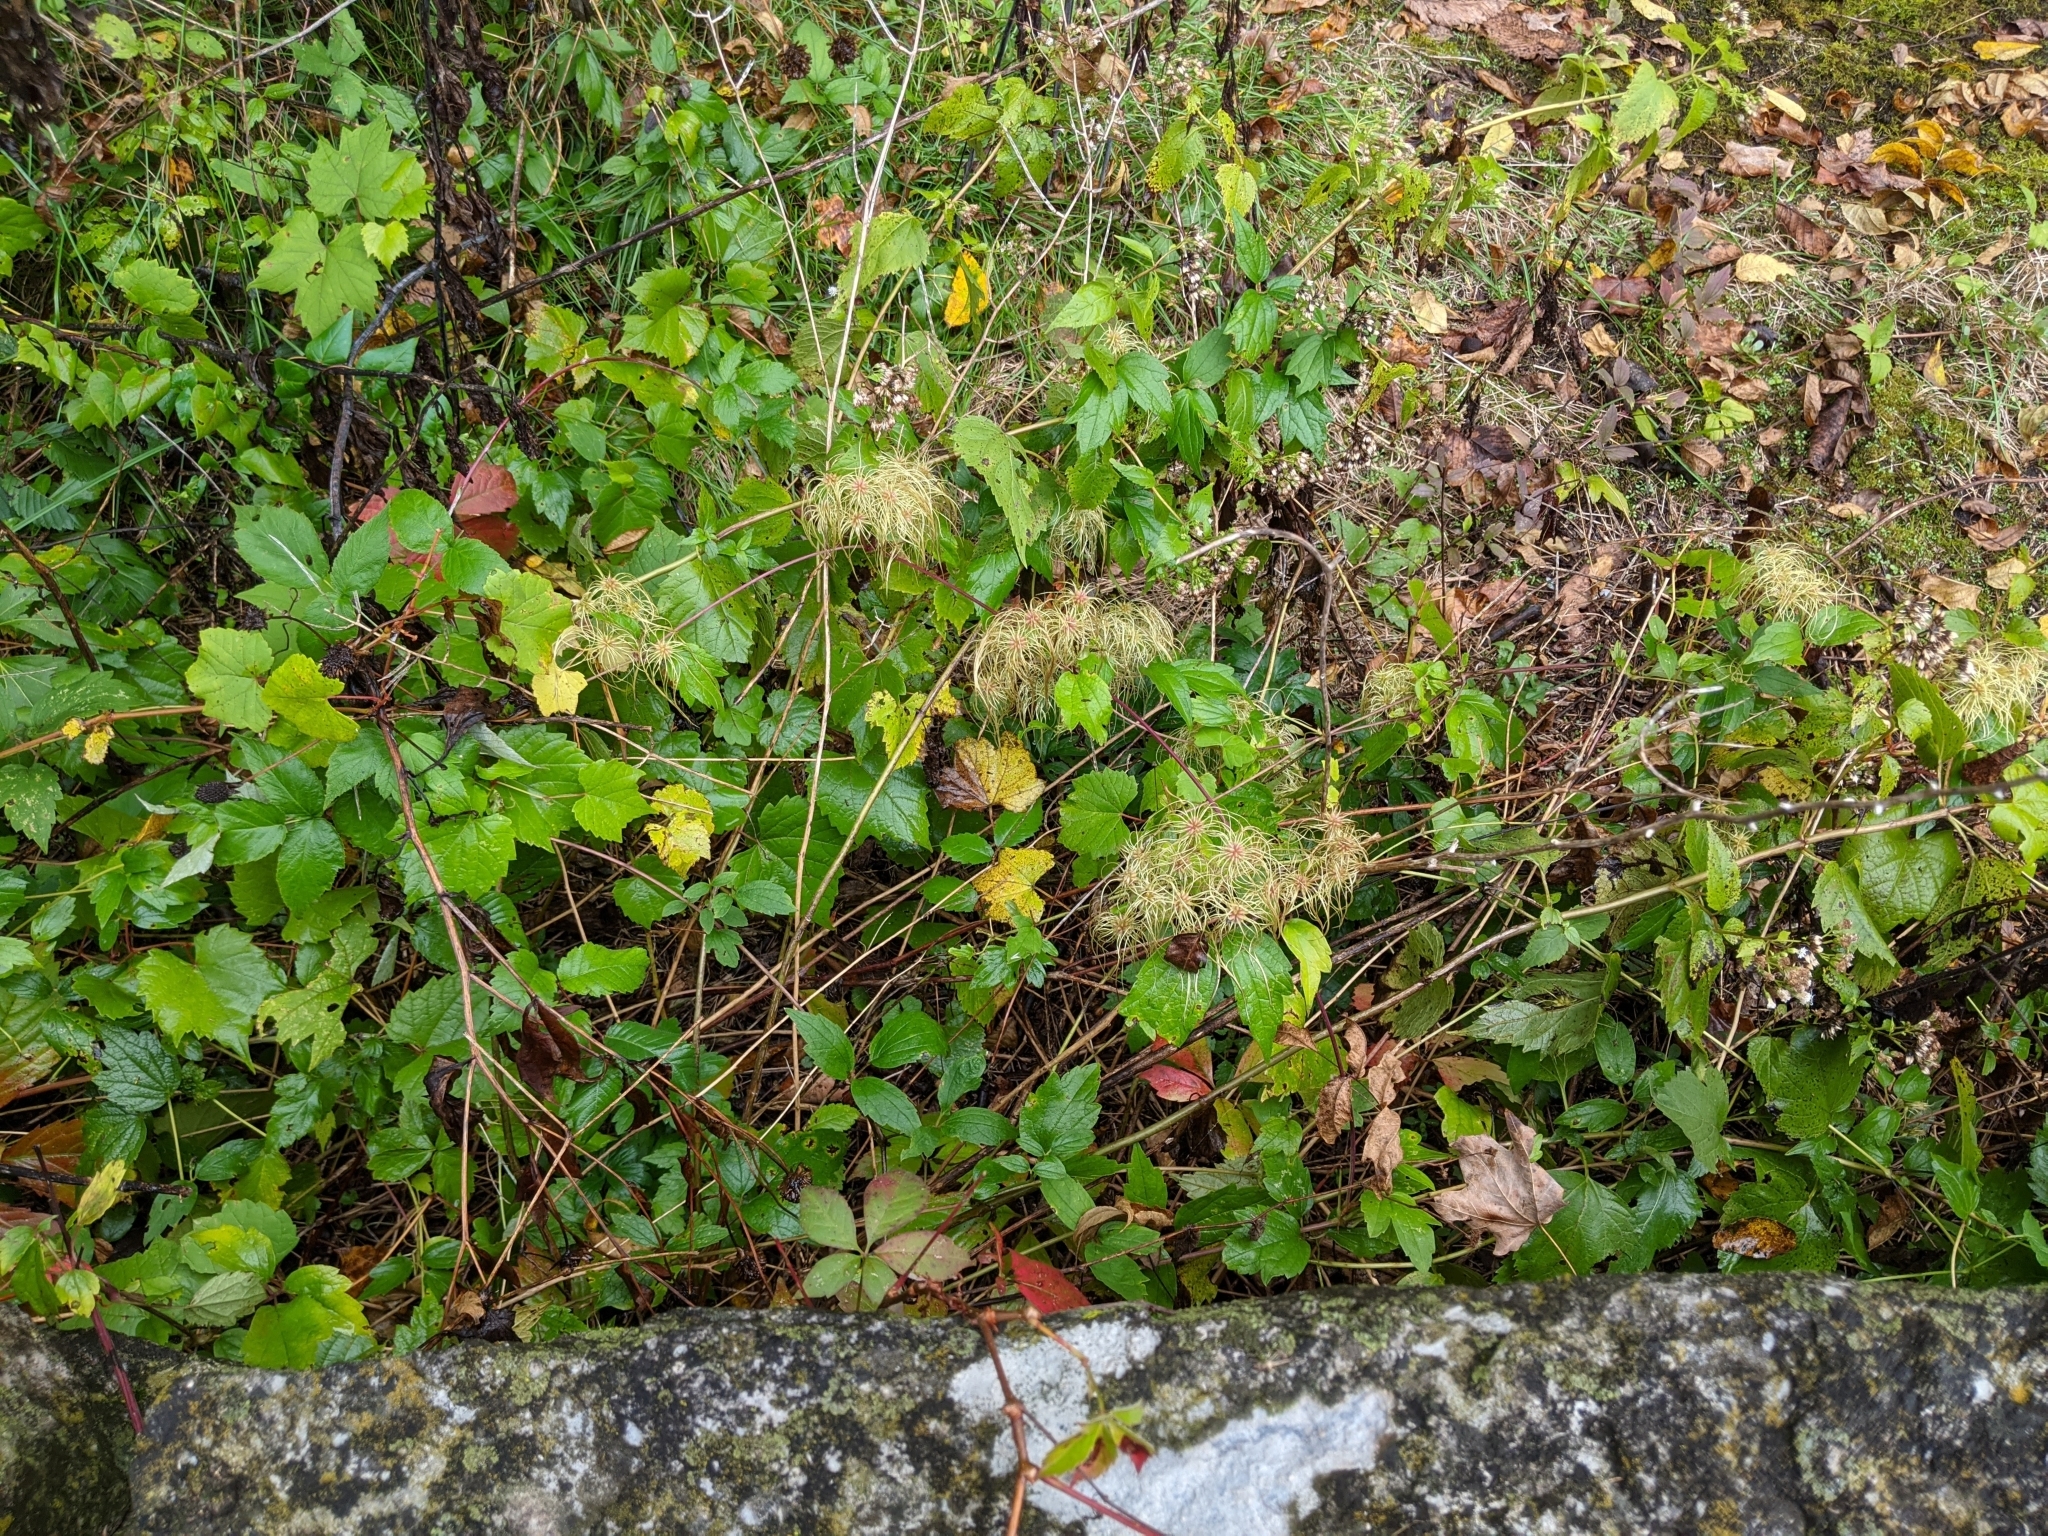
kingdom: Plantae
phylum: Tracheophyta
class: Magnoliopsida
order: Ranunculales
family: Ranunculaceae
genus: Clematis
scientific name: Clematis virginiana
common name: Virgin's-bower
